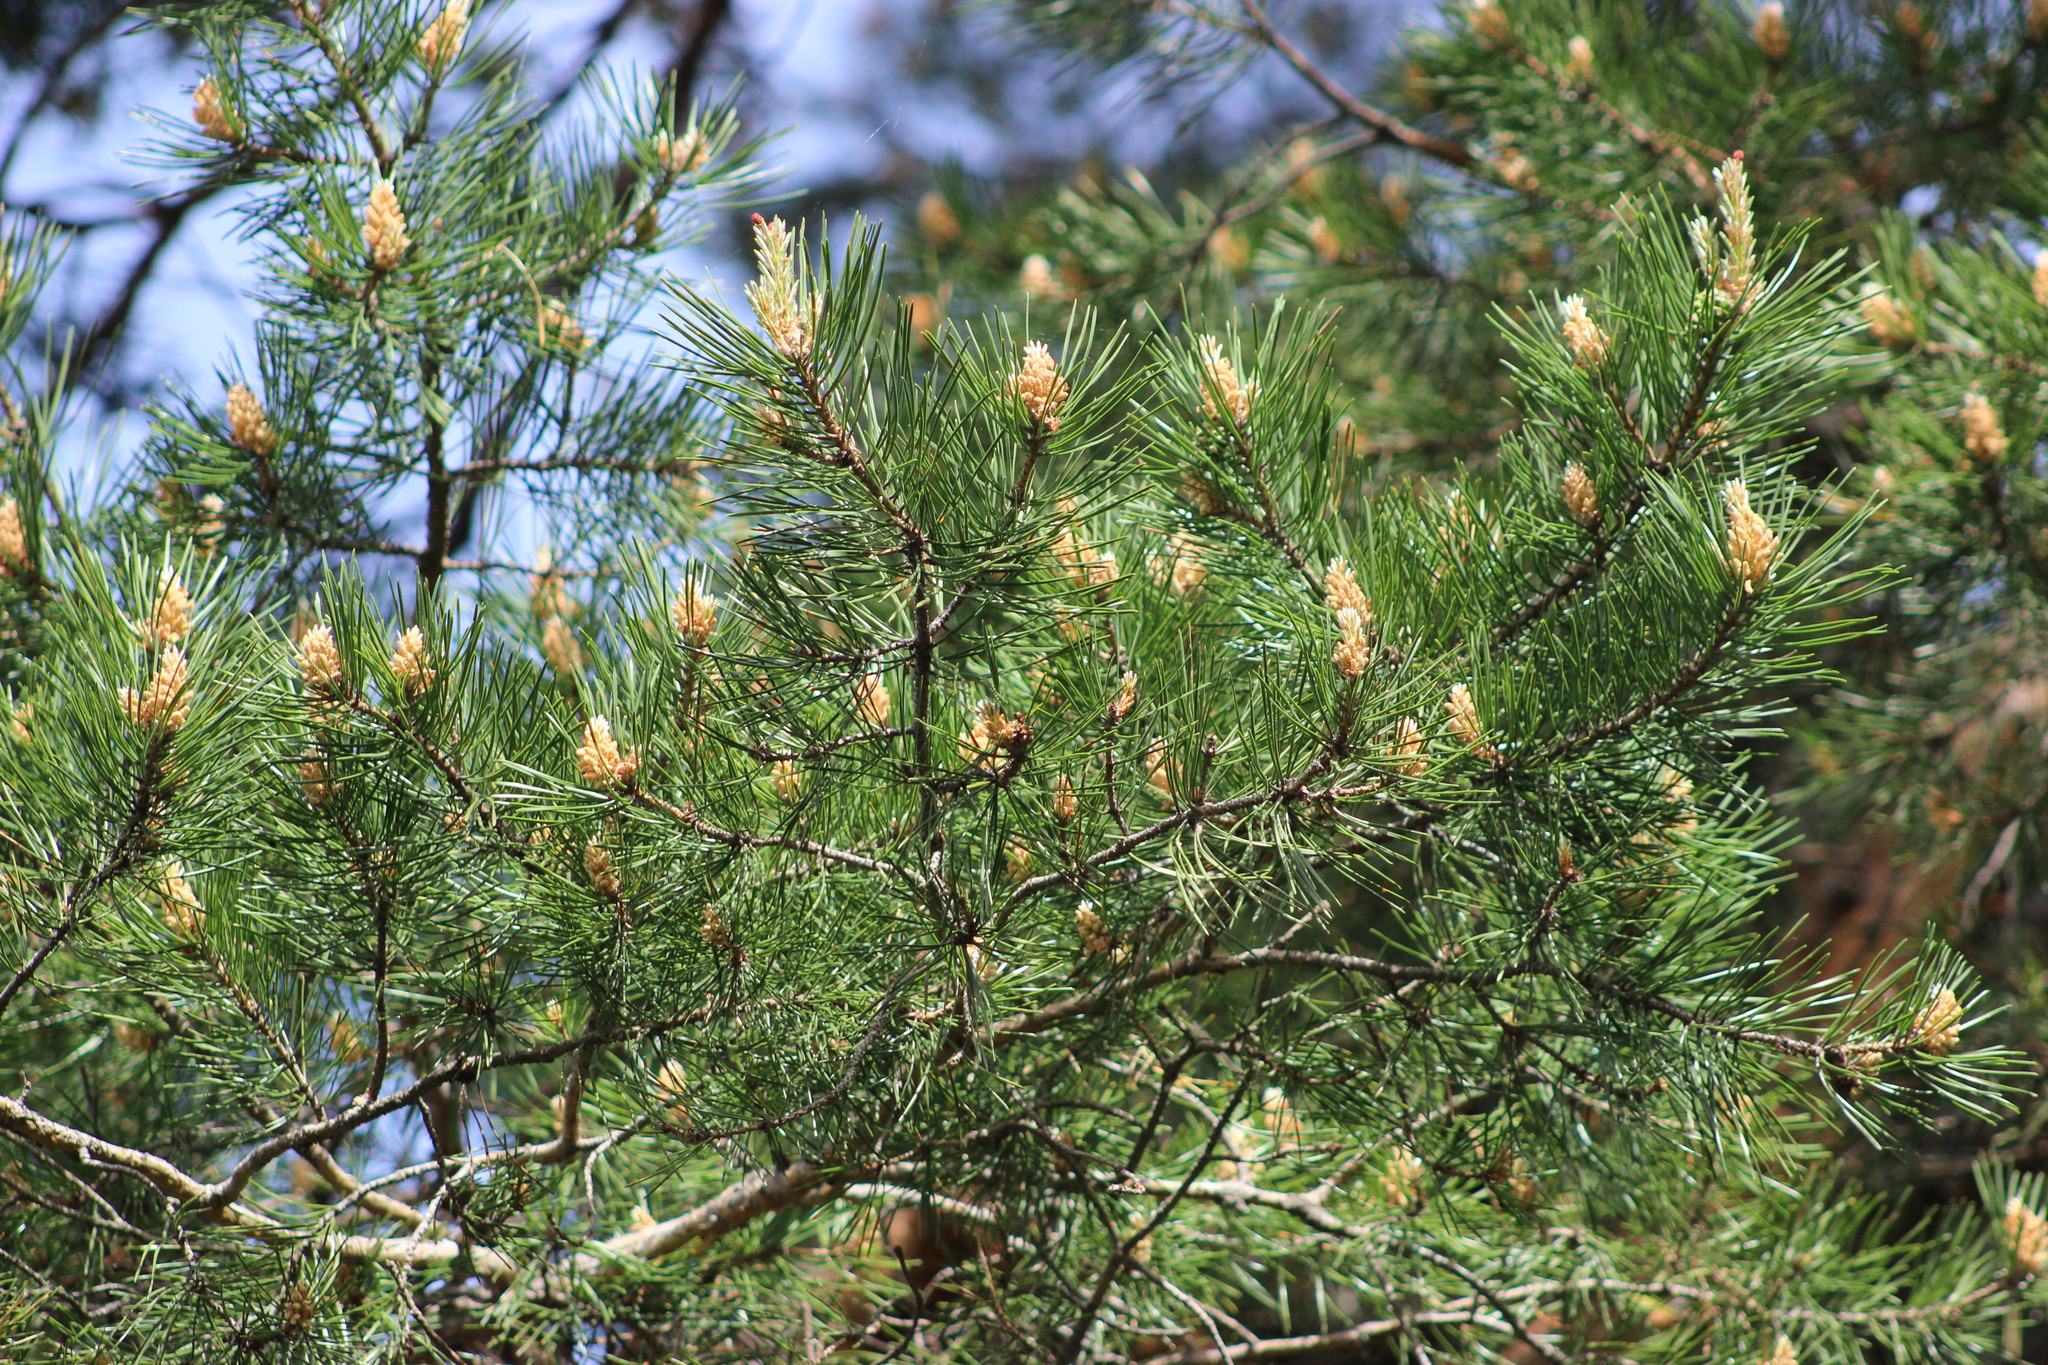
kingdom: Plantae
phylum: Tracheophyta
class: Pinopsida
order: Pinales
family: Pinaceae
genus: Pinus
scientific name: Pinus sylvestris
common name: Scots pine
